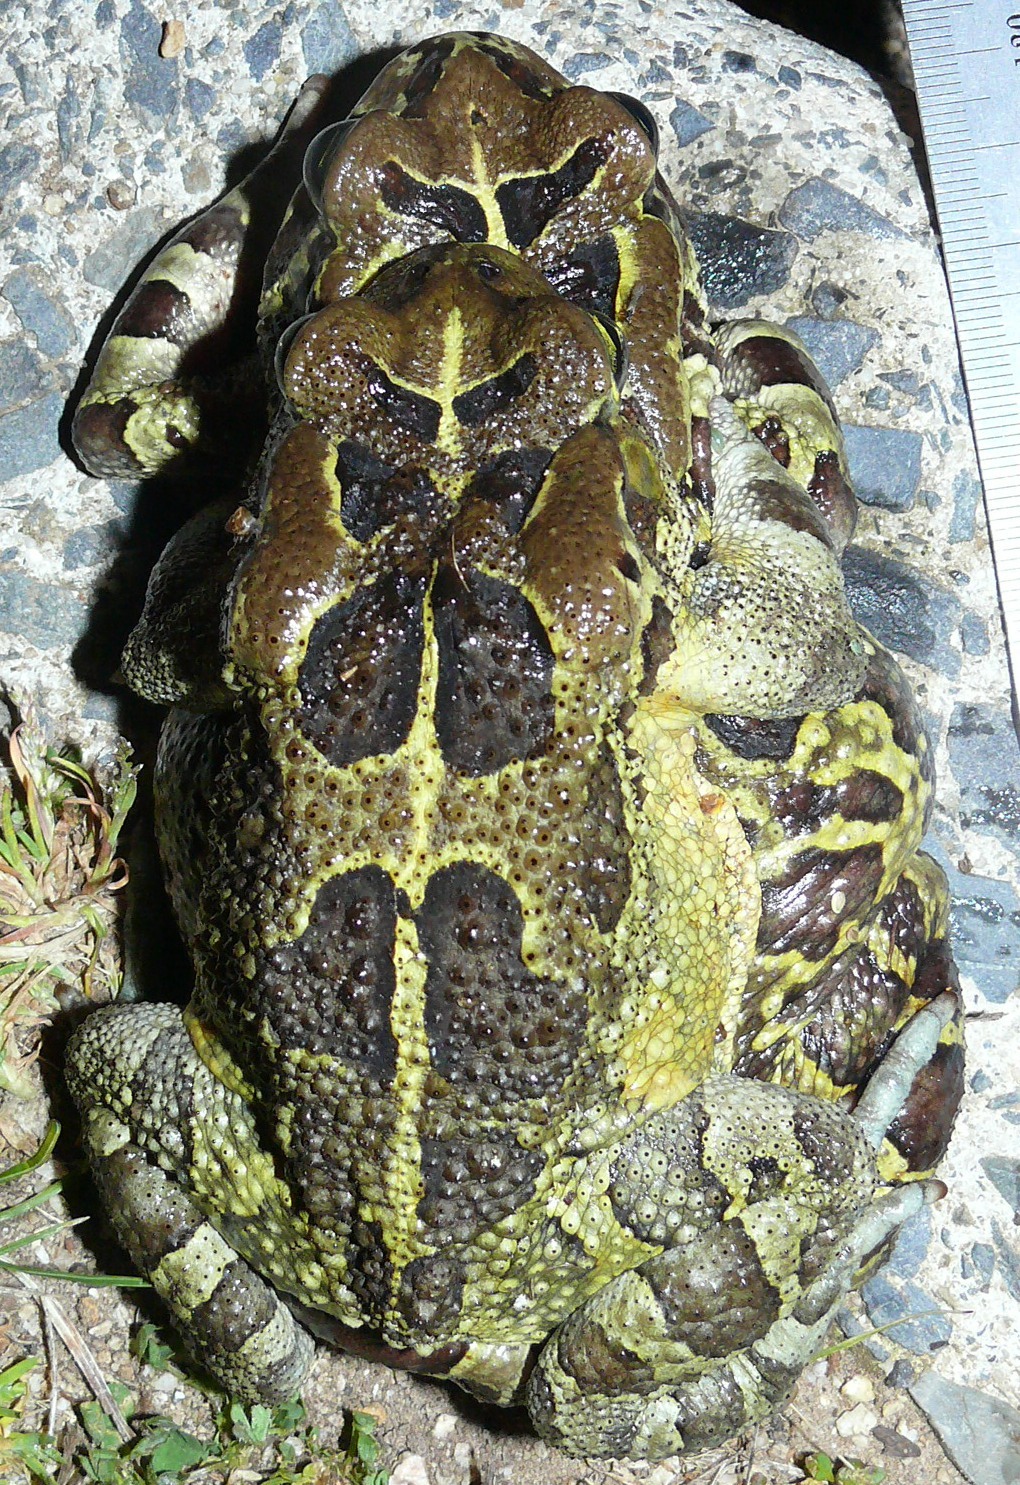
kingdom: Animalia
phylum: Chordata
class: Amphibia
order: Anura
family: Bufonidae
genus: Sclerophrys
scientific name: Sclerophrys pantherina
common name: Panther toad
